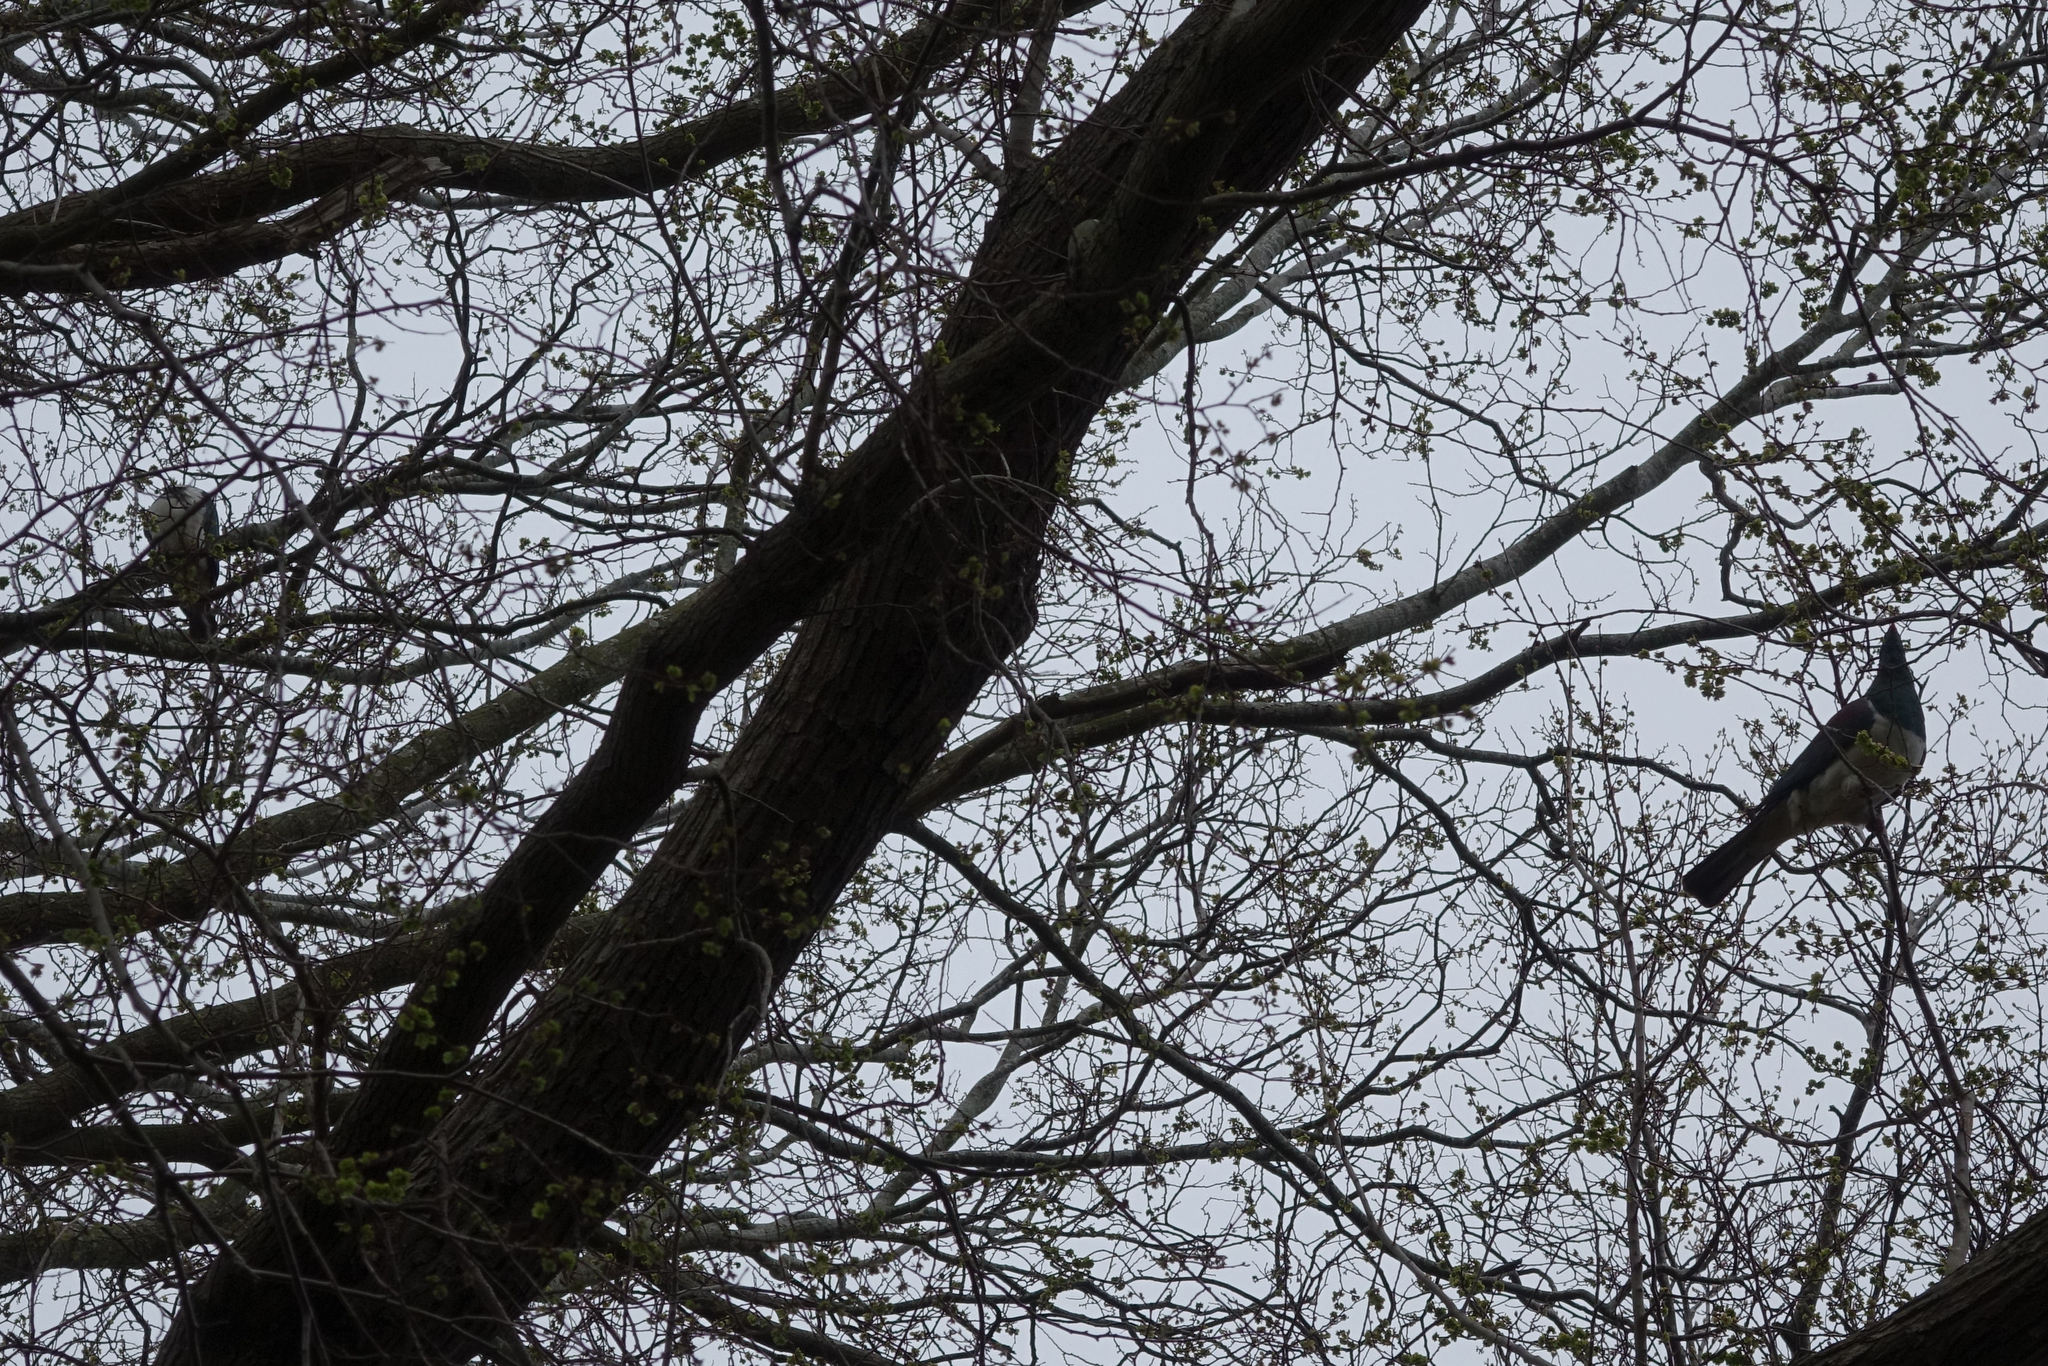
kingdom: Animalia
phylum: Chordata
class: Aves
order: Columbiformes
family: Columbidae
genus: Hemiphaga
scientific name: Hemiphaga novaeseelandiae
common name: New zealand pigeon
